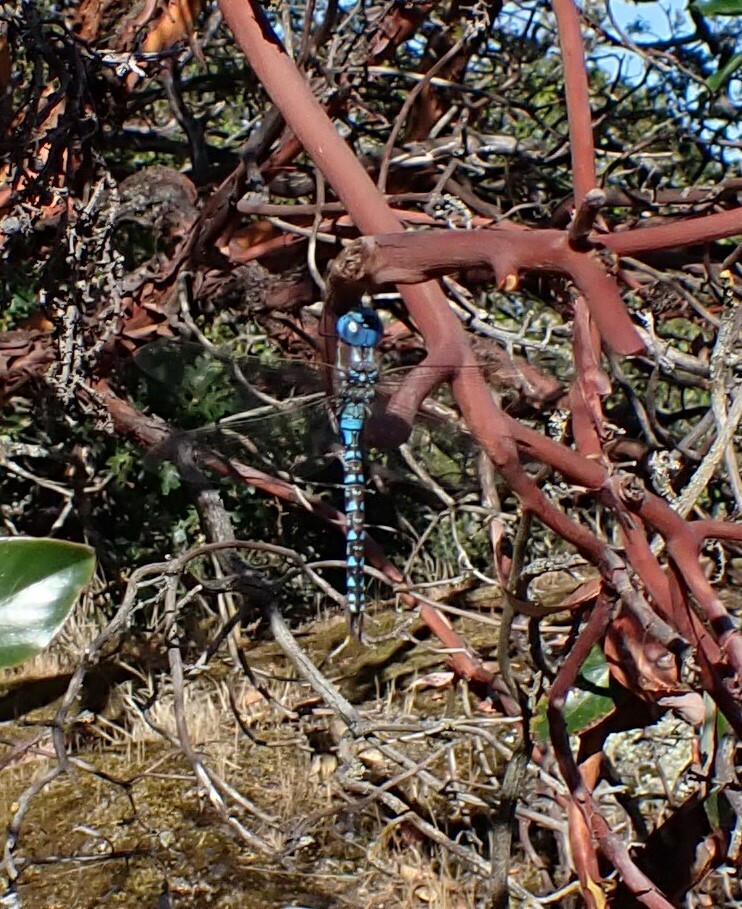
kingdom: Animalia
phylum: Arthropoda
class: Insecta
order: Odonata
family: Aeshnidae
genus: Rhionaeschna
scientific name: Rhionaeschna multicolor
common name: Blue-eyed darner
